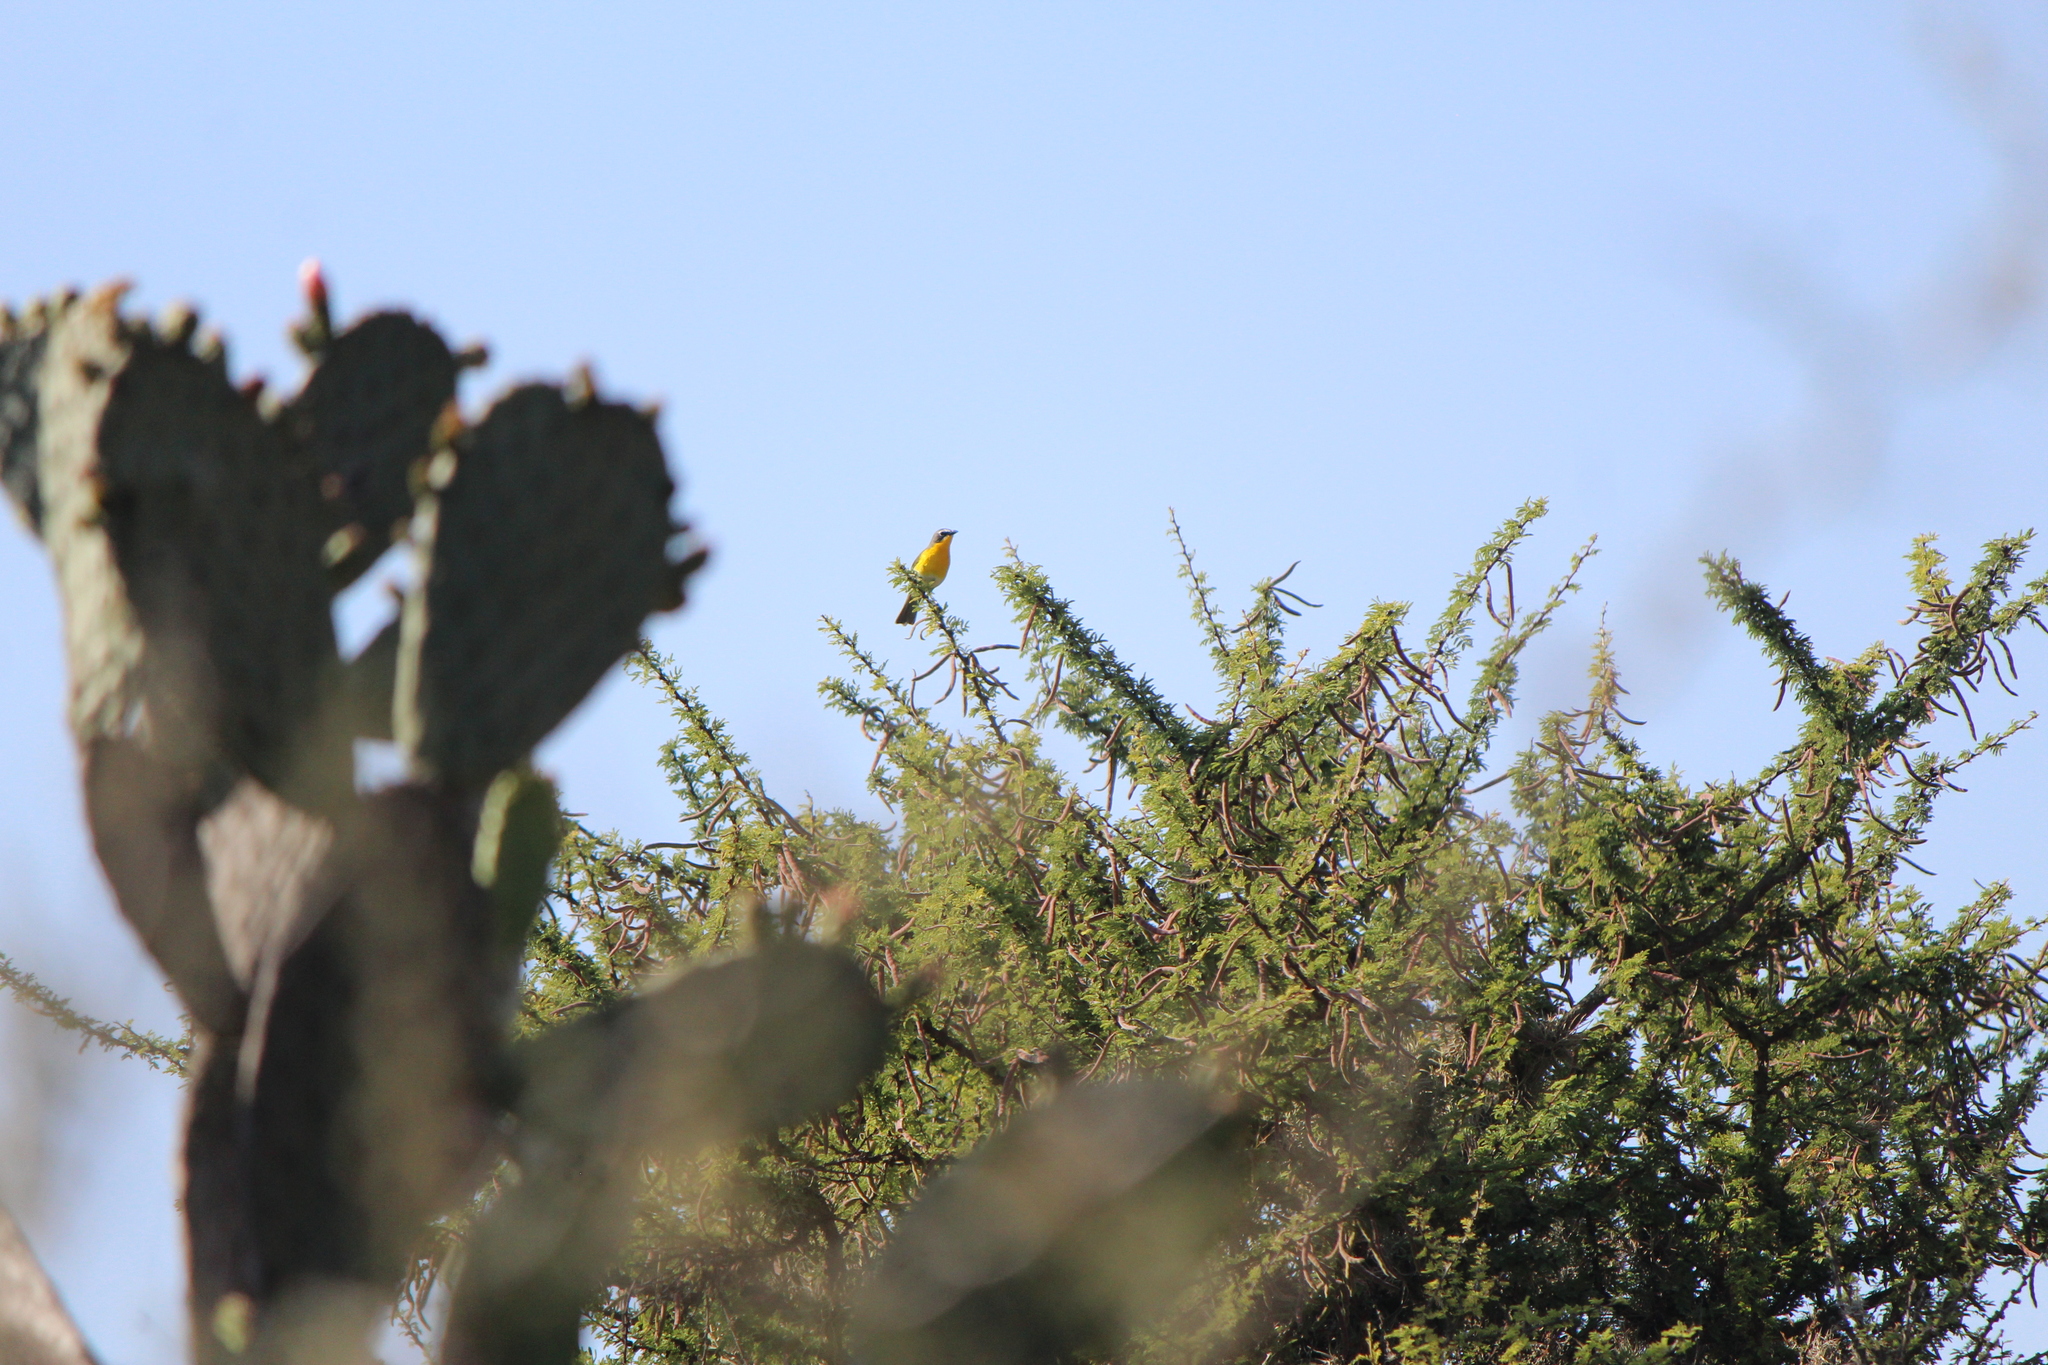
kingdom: Animalia
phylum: Chordata
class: Aves
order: Passeriformes
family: Parulidae
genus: Icteria
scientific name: Icteria virens
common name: Yellow-breasted chat
